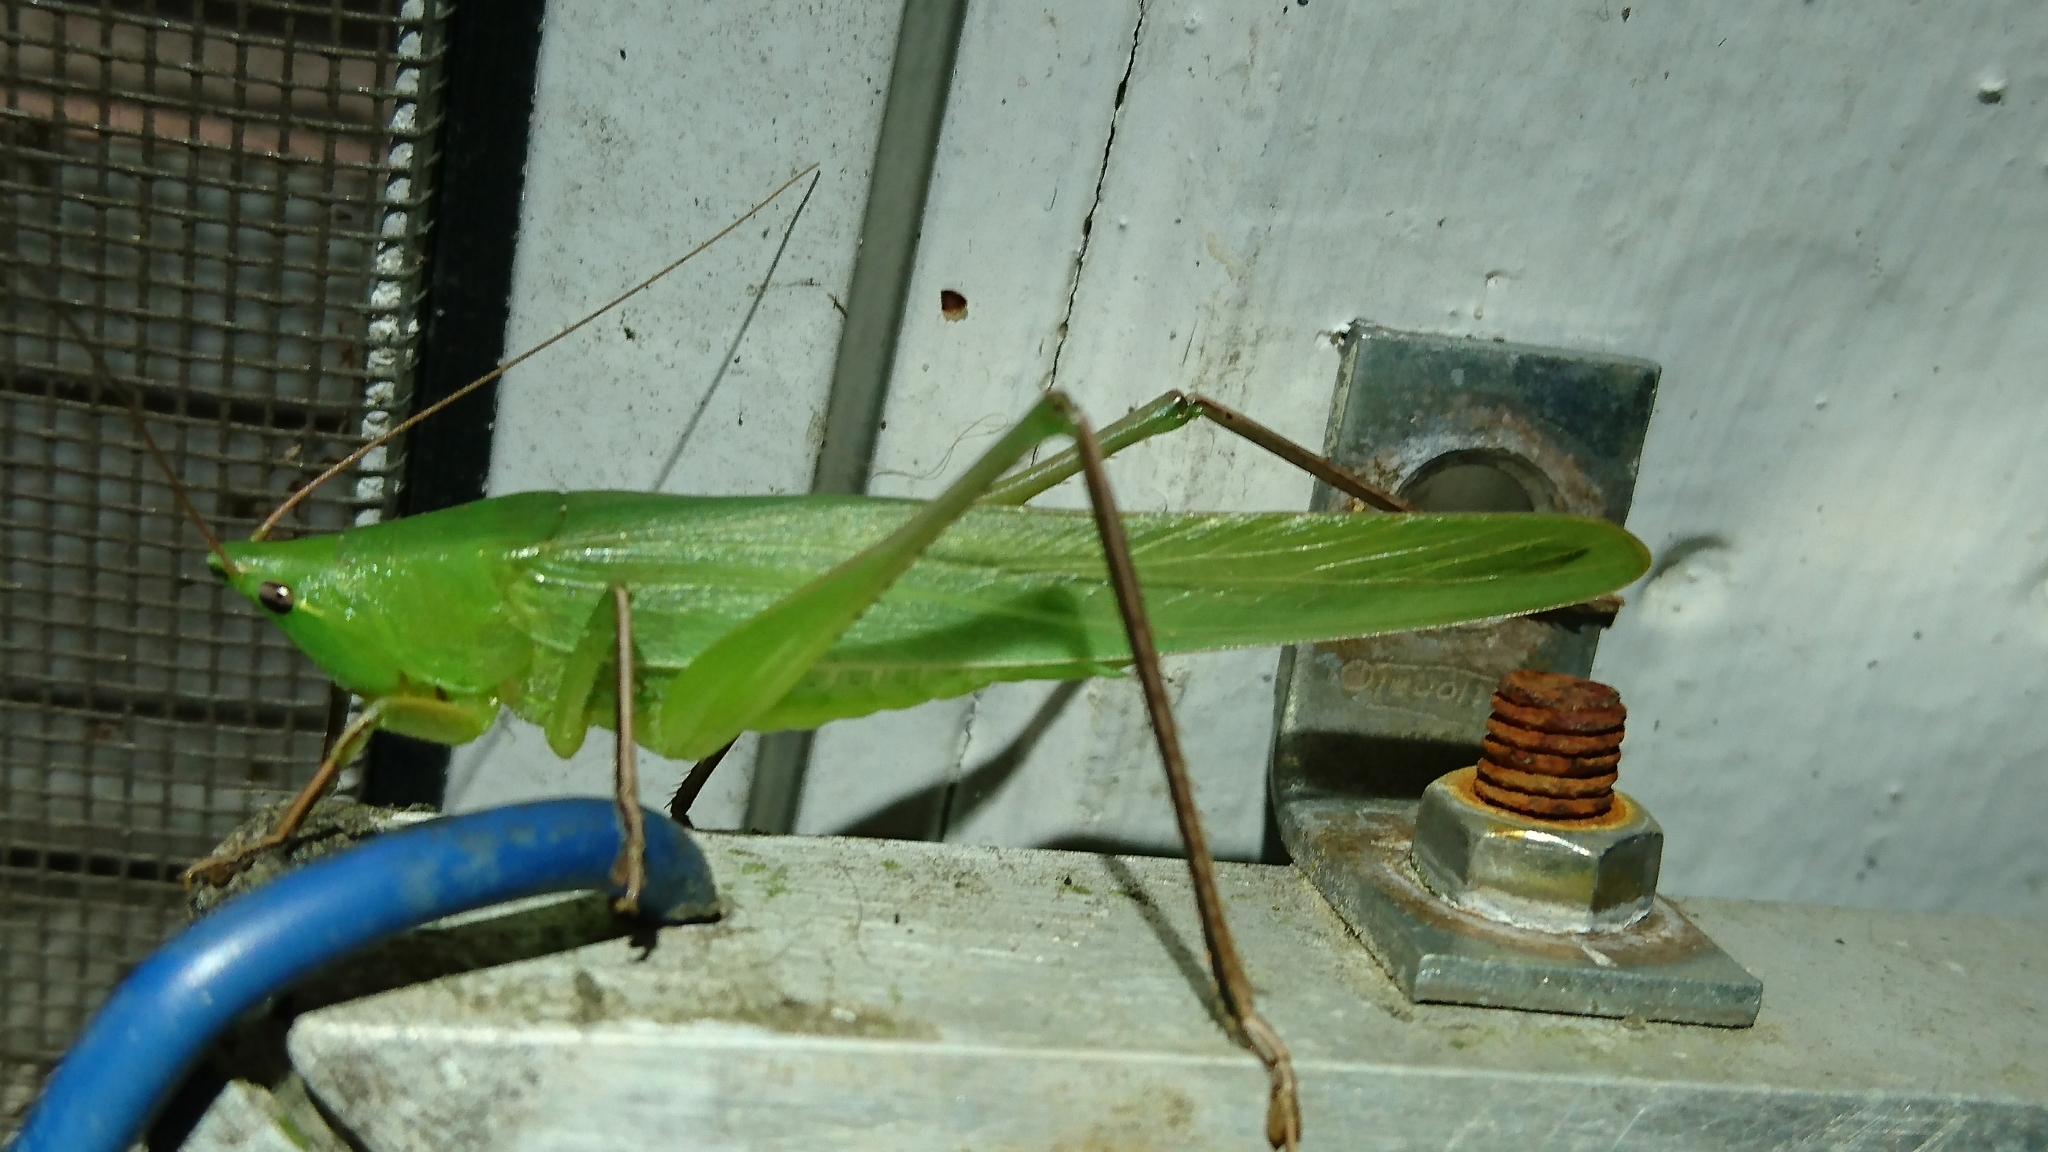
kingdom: Animalia
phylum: Arthropoda
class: Insecta
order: Orthoptera
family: Tettigoniidae
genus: Neoconocephalus
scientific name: Neoconocephalus triops
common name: Broad-tipped conehead
